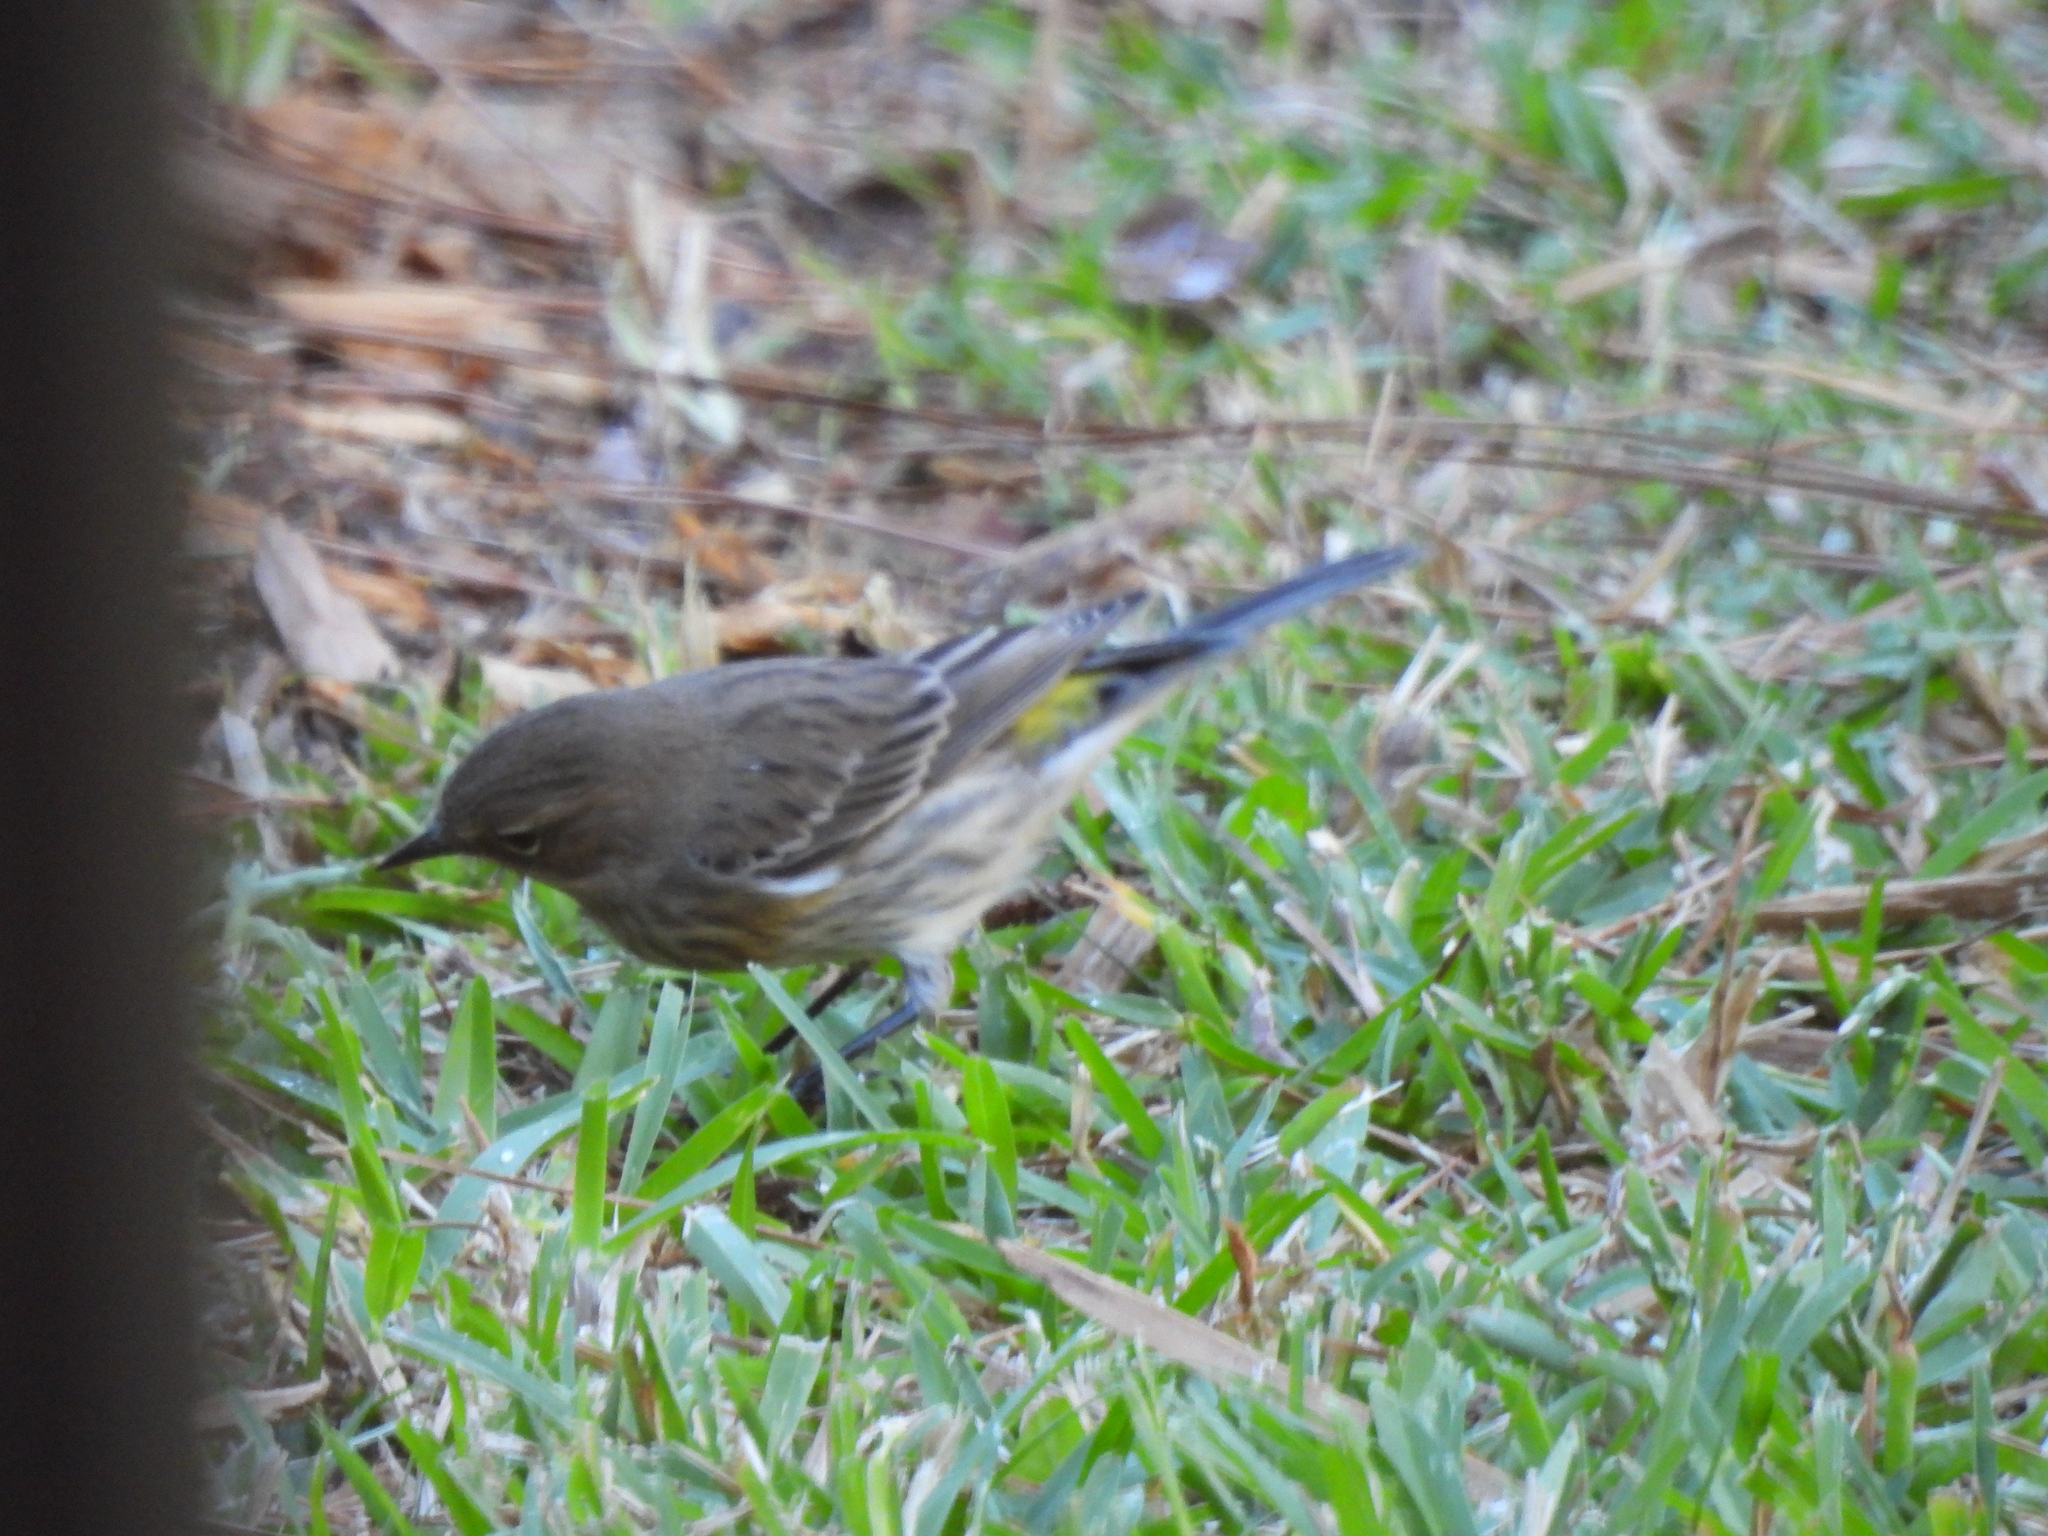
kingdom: Animalia
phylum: Chordata
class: Aves
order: Passeriformes
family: Parulidae
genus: Setophaga
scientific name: Setophaga coronata
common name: Myrtle warbler
